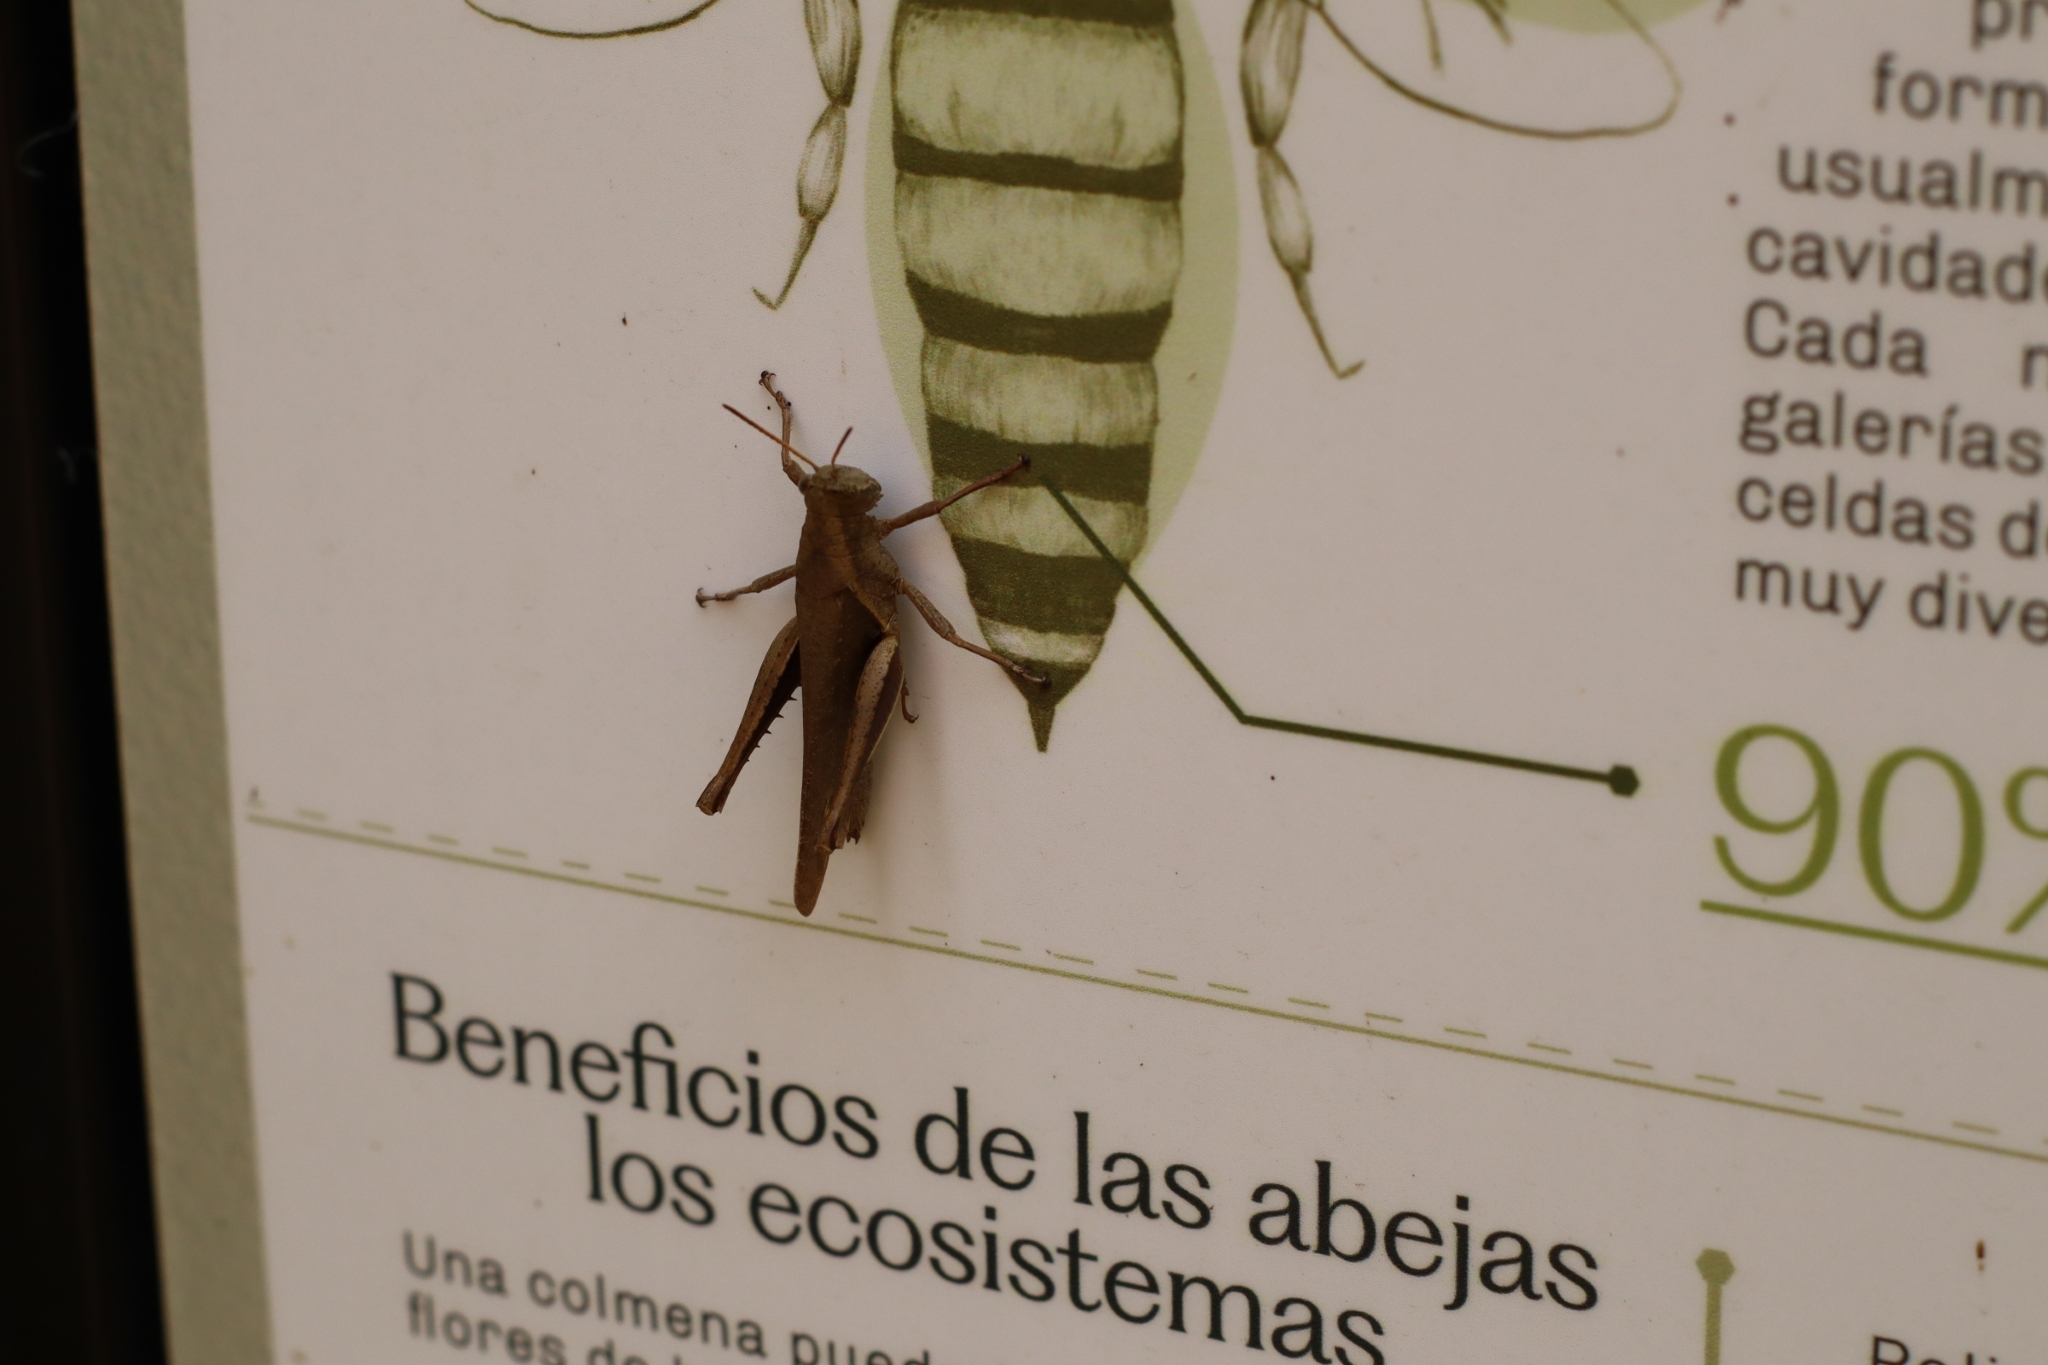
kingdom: Animalia
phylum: Arthropoda
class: Insecta
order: Orthoptera
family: Acrididae
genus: Abracris
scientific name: Abracris flavolineata
